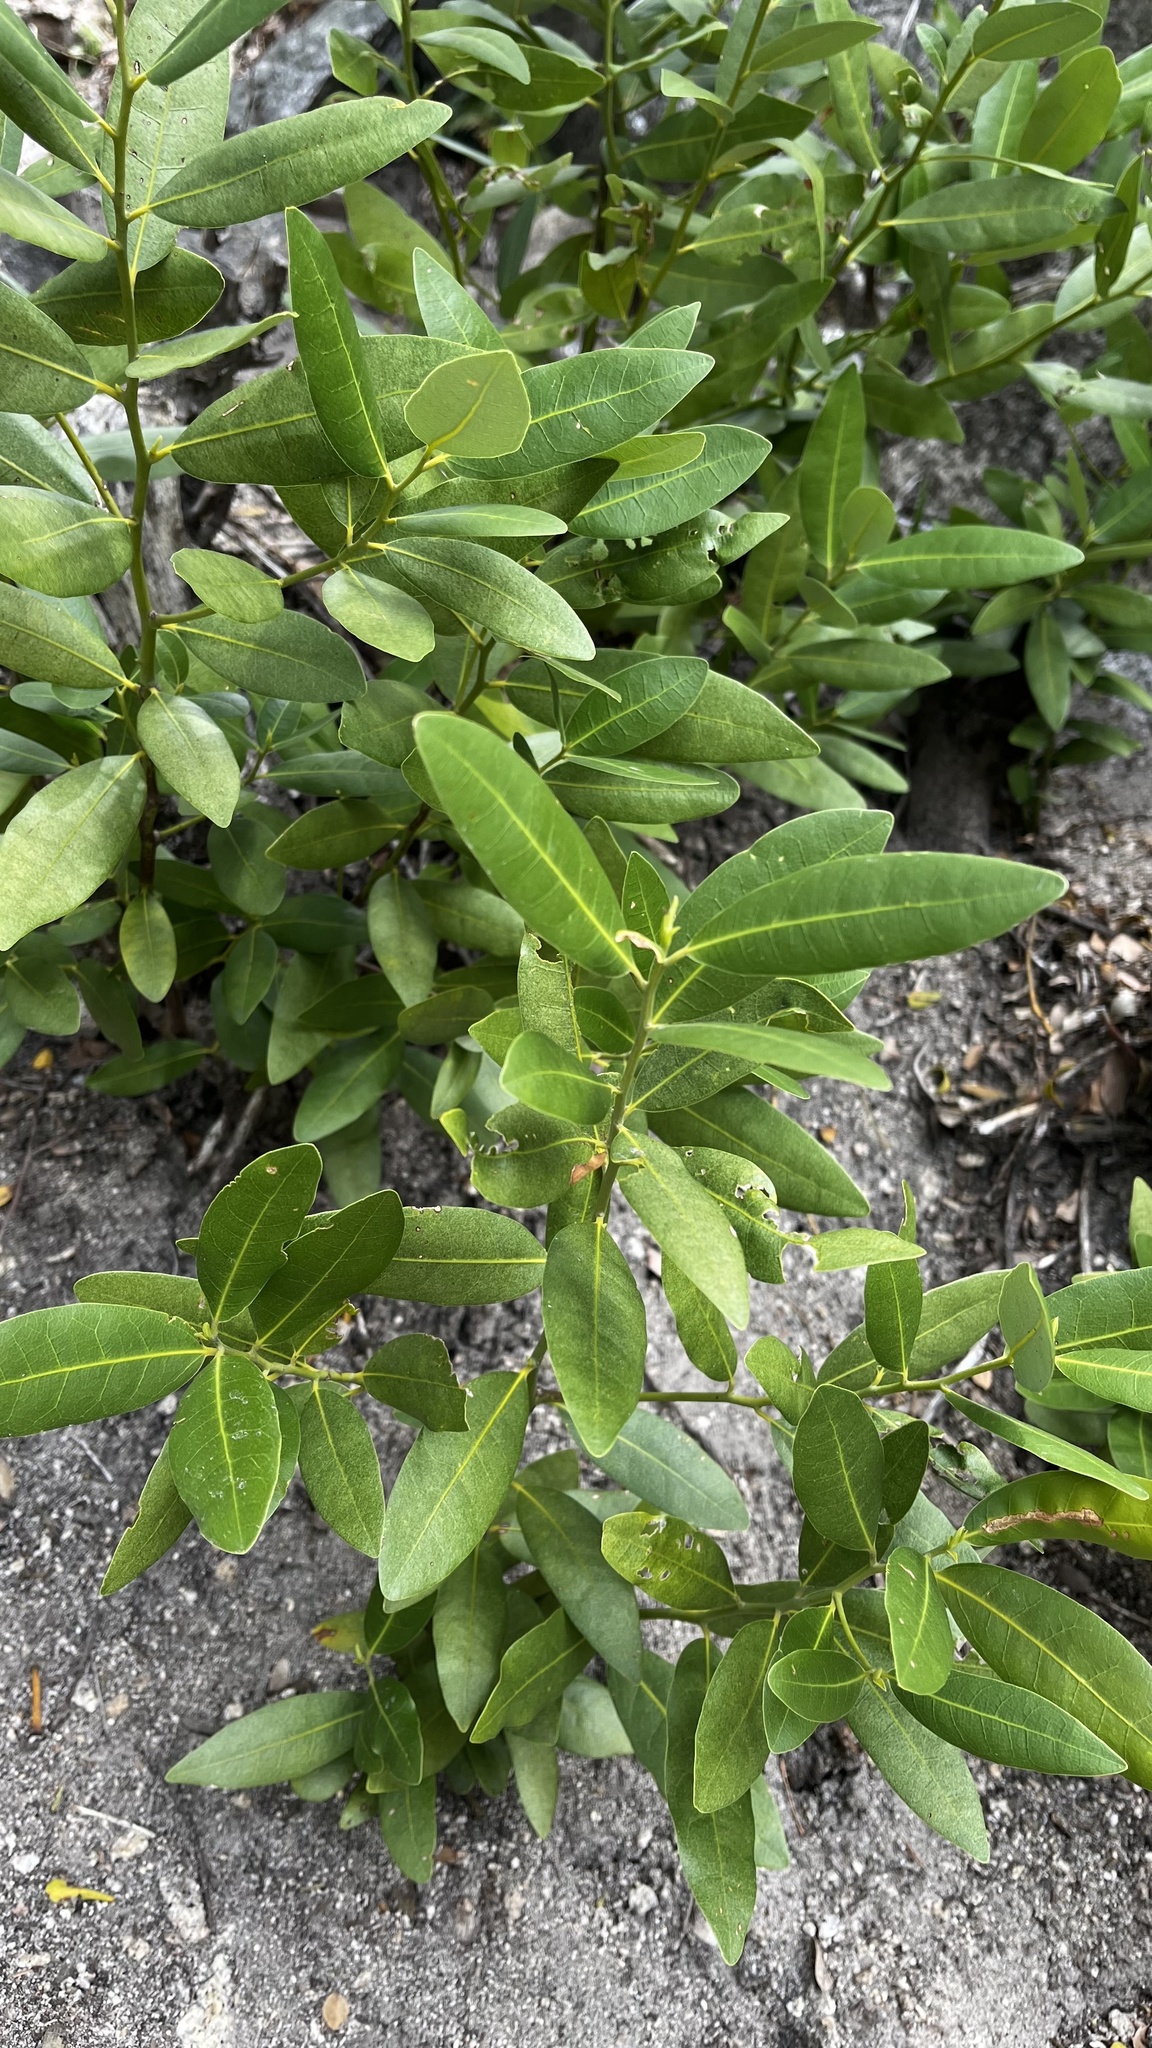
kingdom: Plantae
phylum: Tracheophyta
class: Magnoliopsida
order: Laurales
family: Lauraceae
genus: Umbellularia
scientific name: Umbellularia californica
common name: California bay
